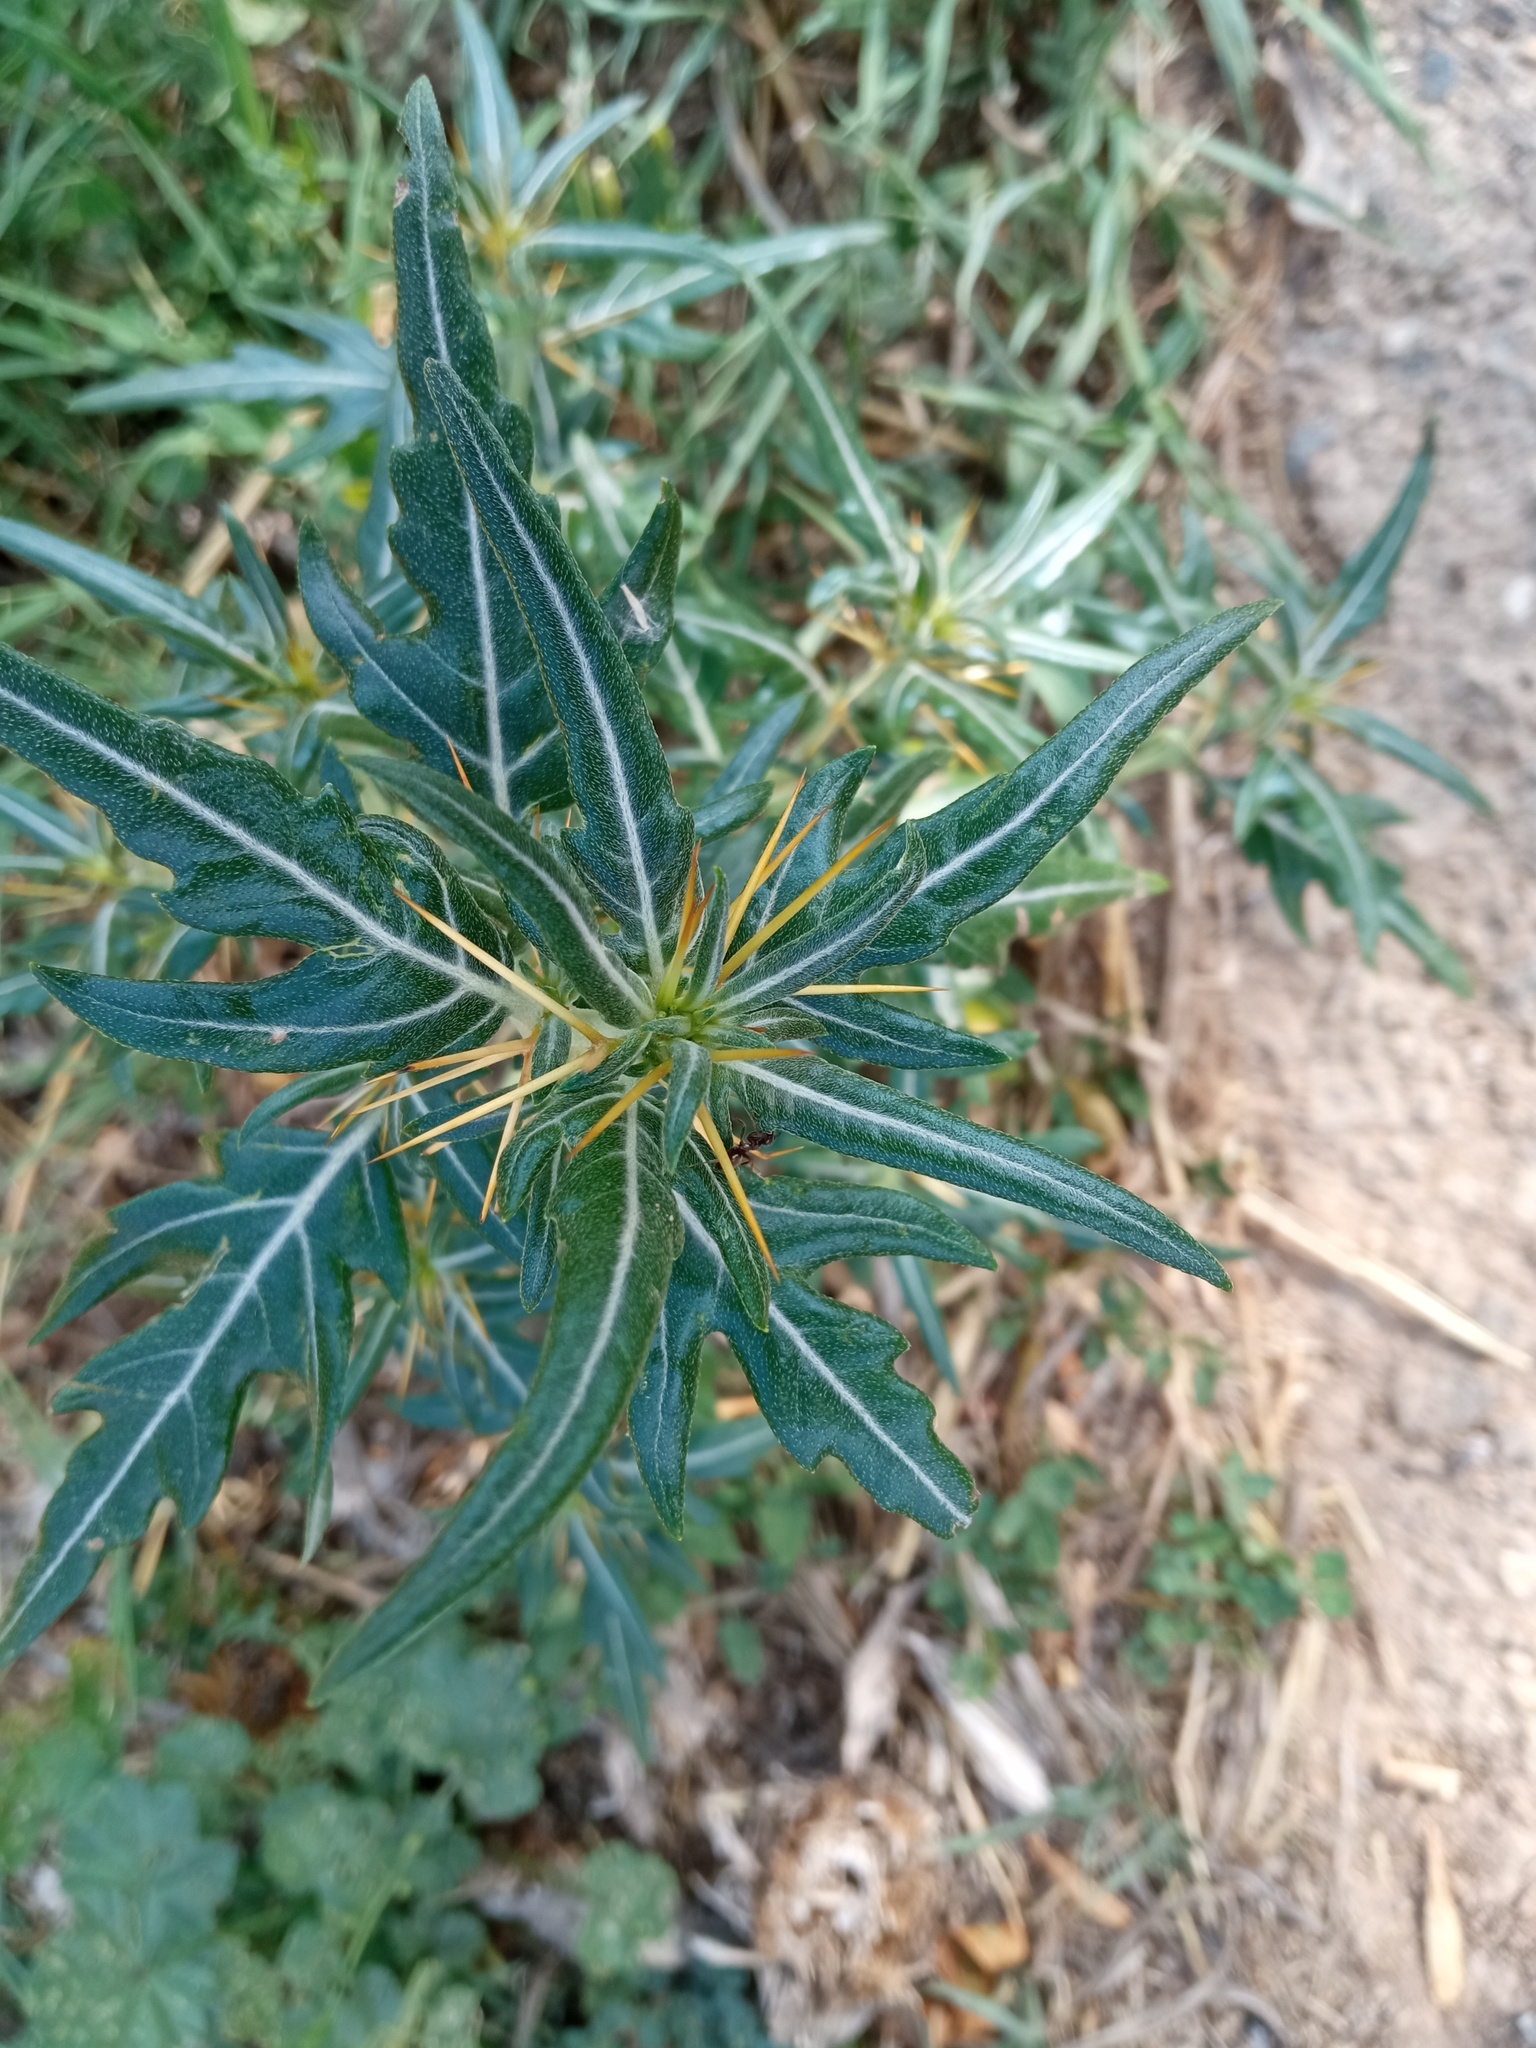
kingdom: Plantae
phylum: Tracheophyta
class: Magnoliopsida
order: Asterales
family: Asteraceae
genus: Xanthium
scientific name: Xanthium spinosum
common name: Spiny cocklebur
